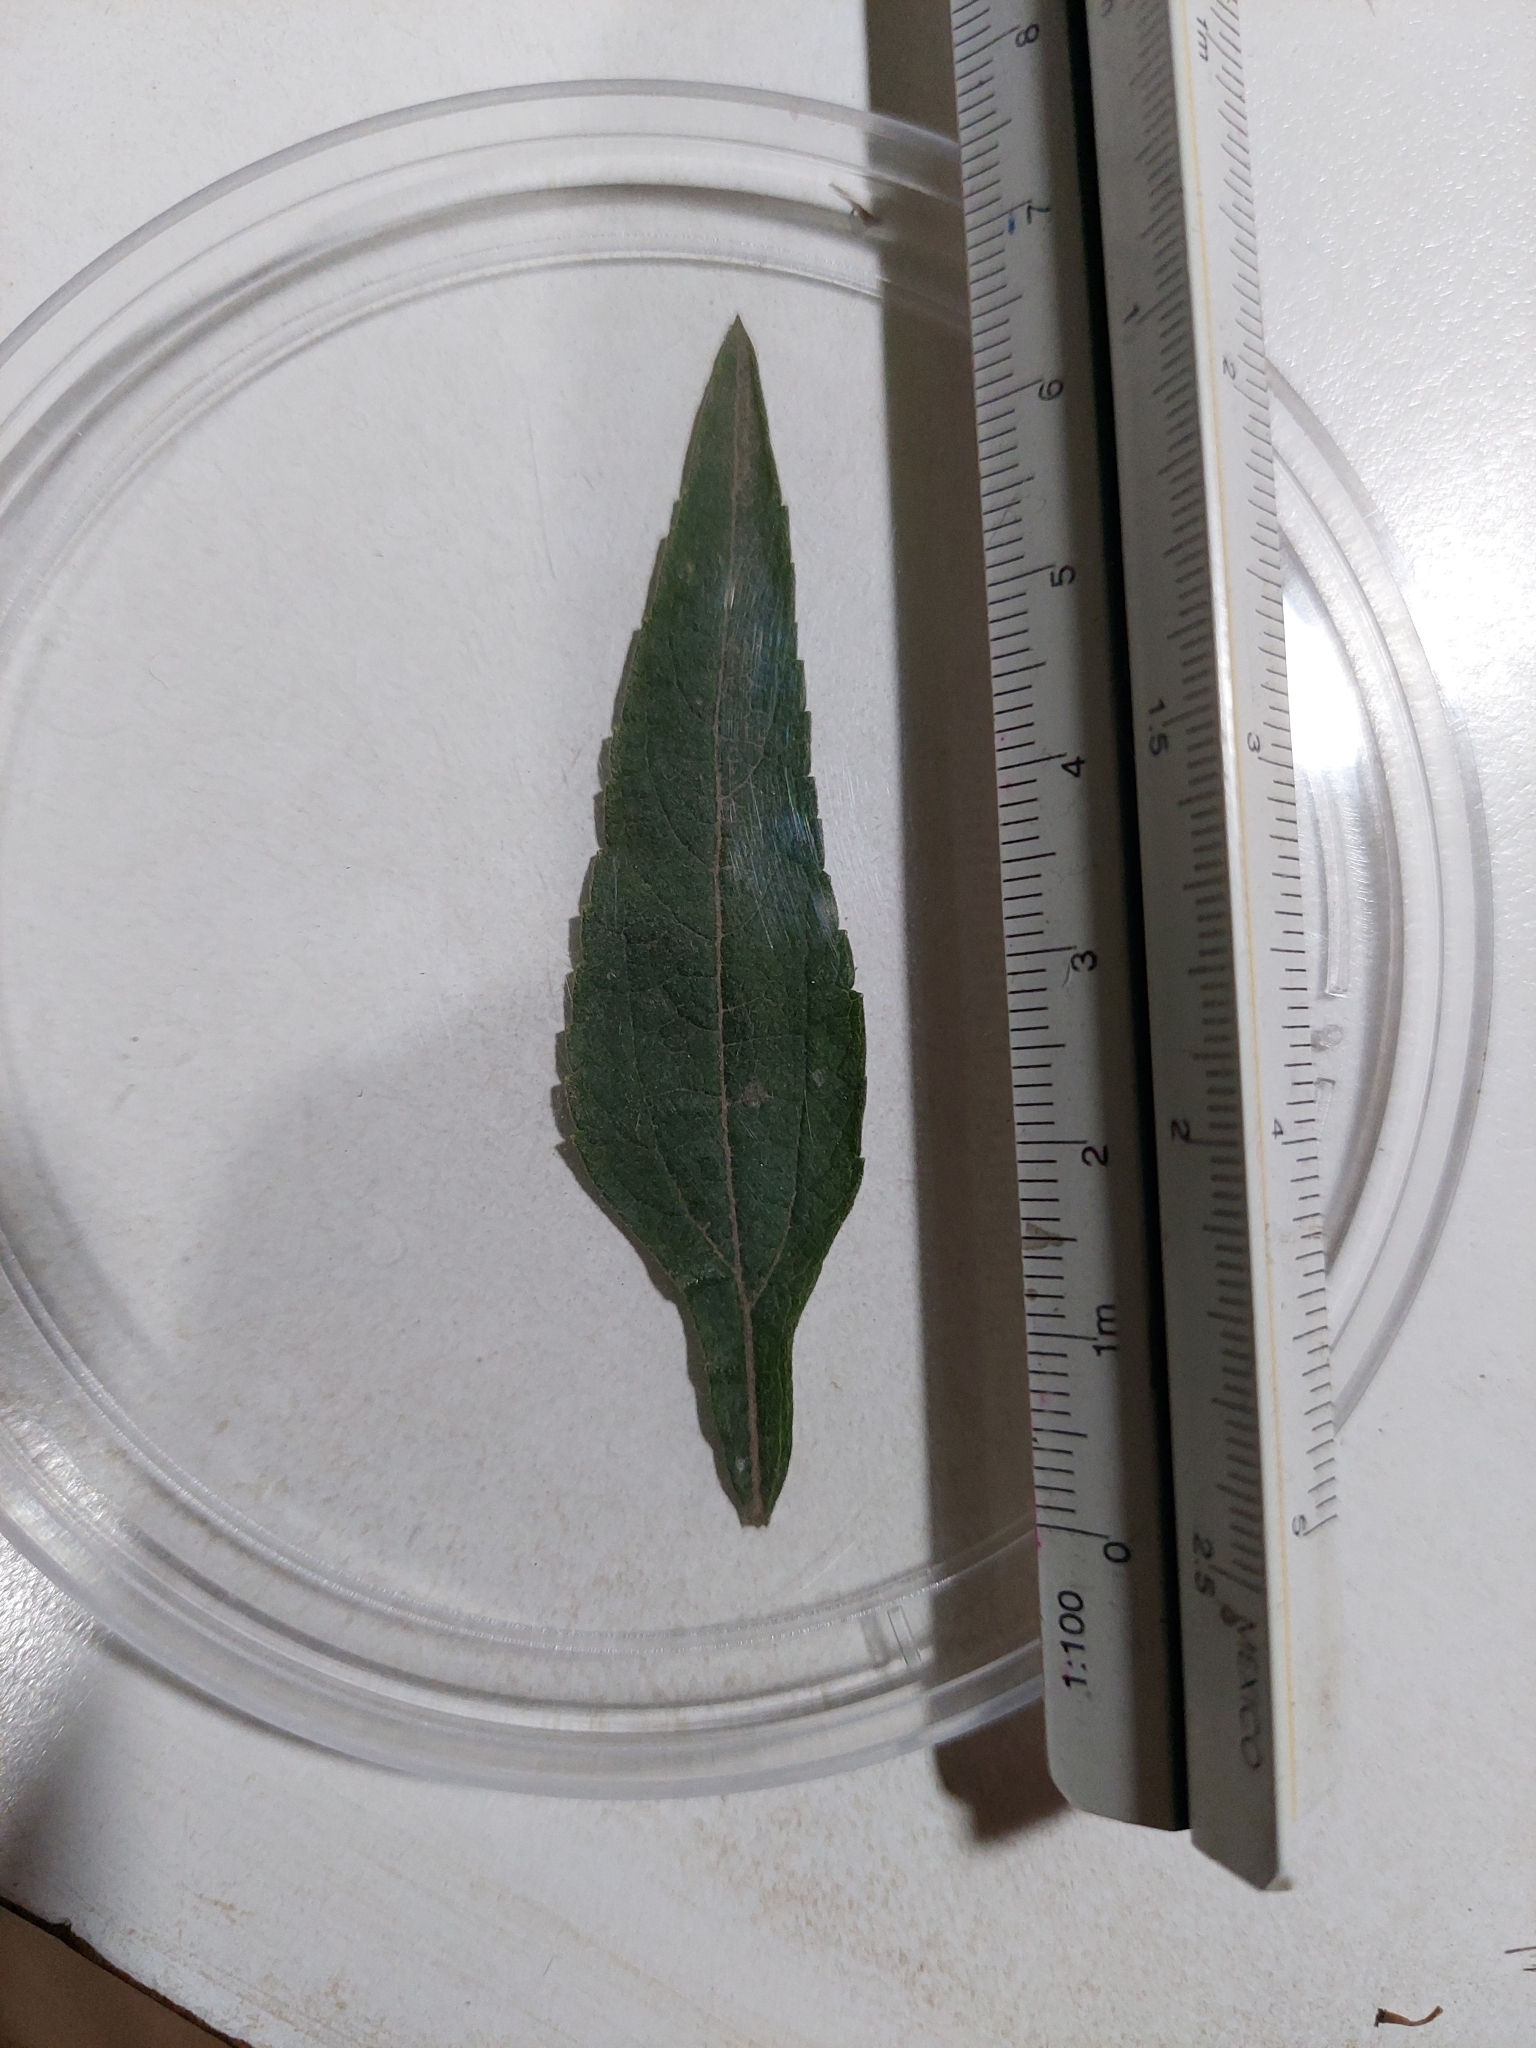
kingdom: Plantae
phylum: Tracheophyta
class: Magnoliopsida
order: Asterales
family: Asteraceae
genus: Austroeupatorium
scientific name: Austroeupatorium inulifolium
